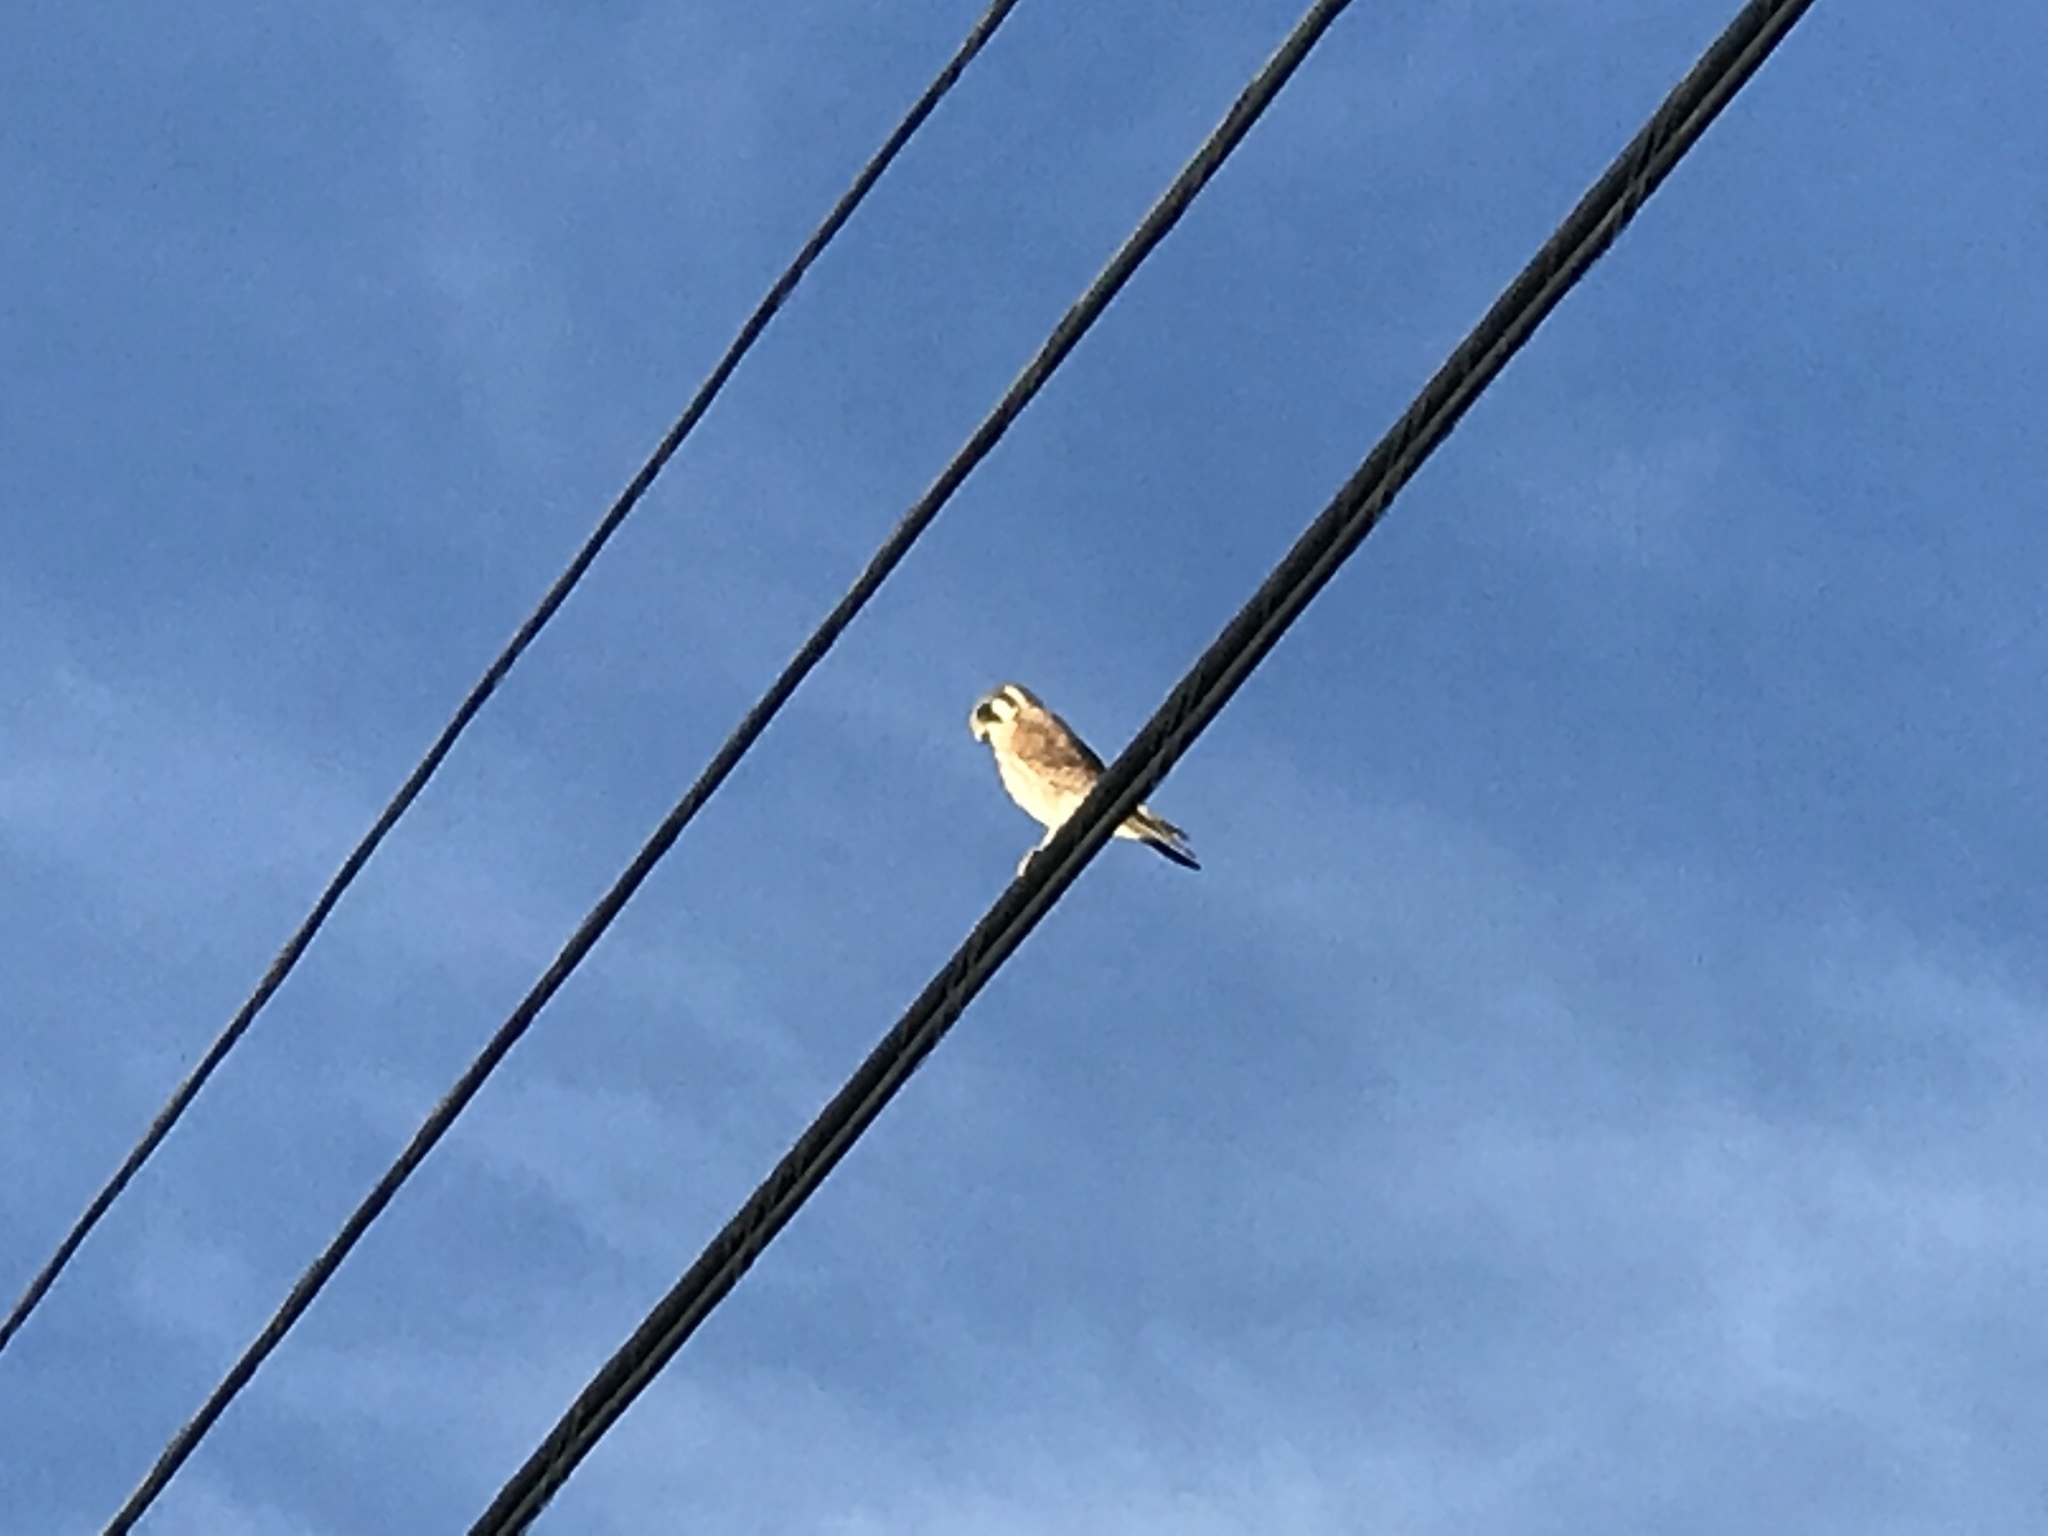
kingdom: Animalia
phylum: Chordata
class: Aves
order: Falconiformes
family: Falconidae
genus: Falco
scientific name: Falco sparverius
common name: American kestrel
